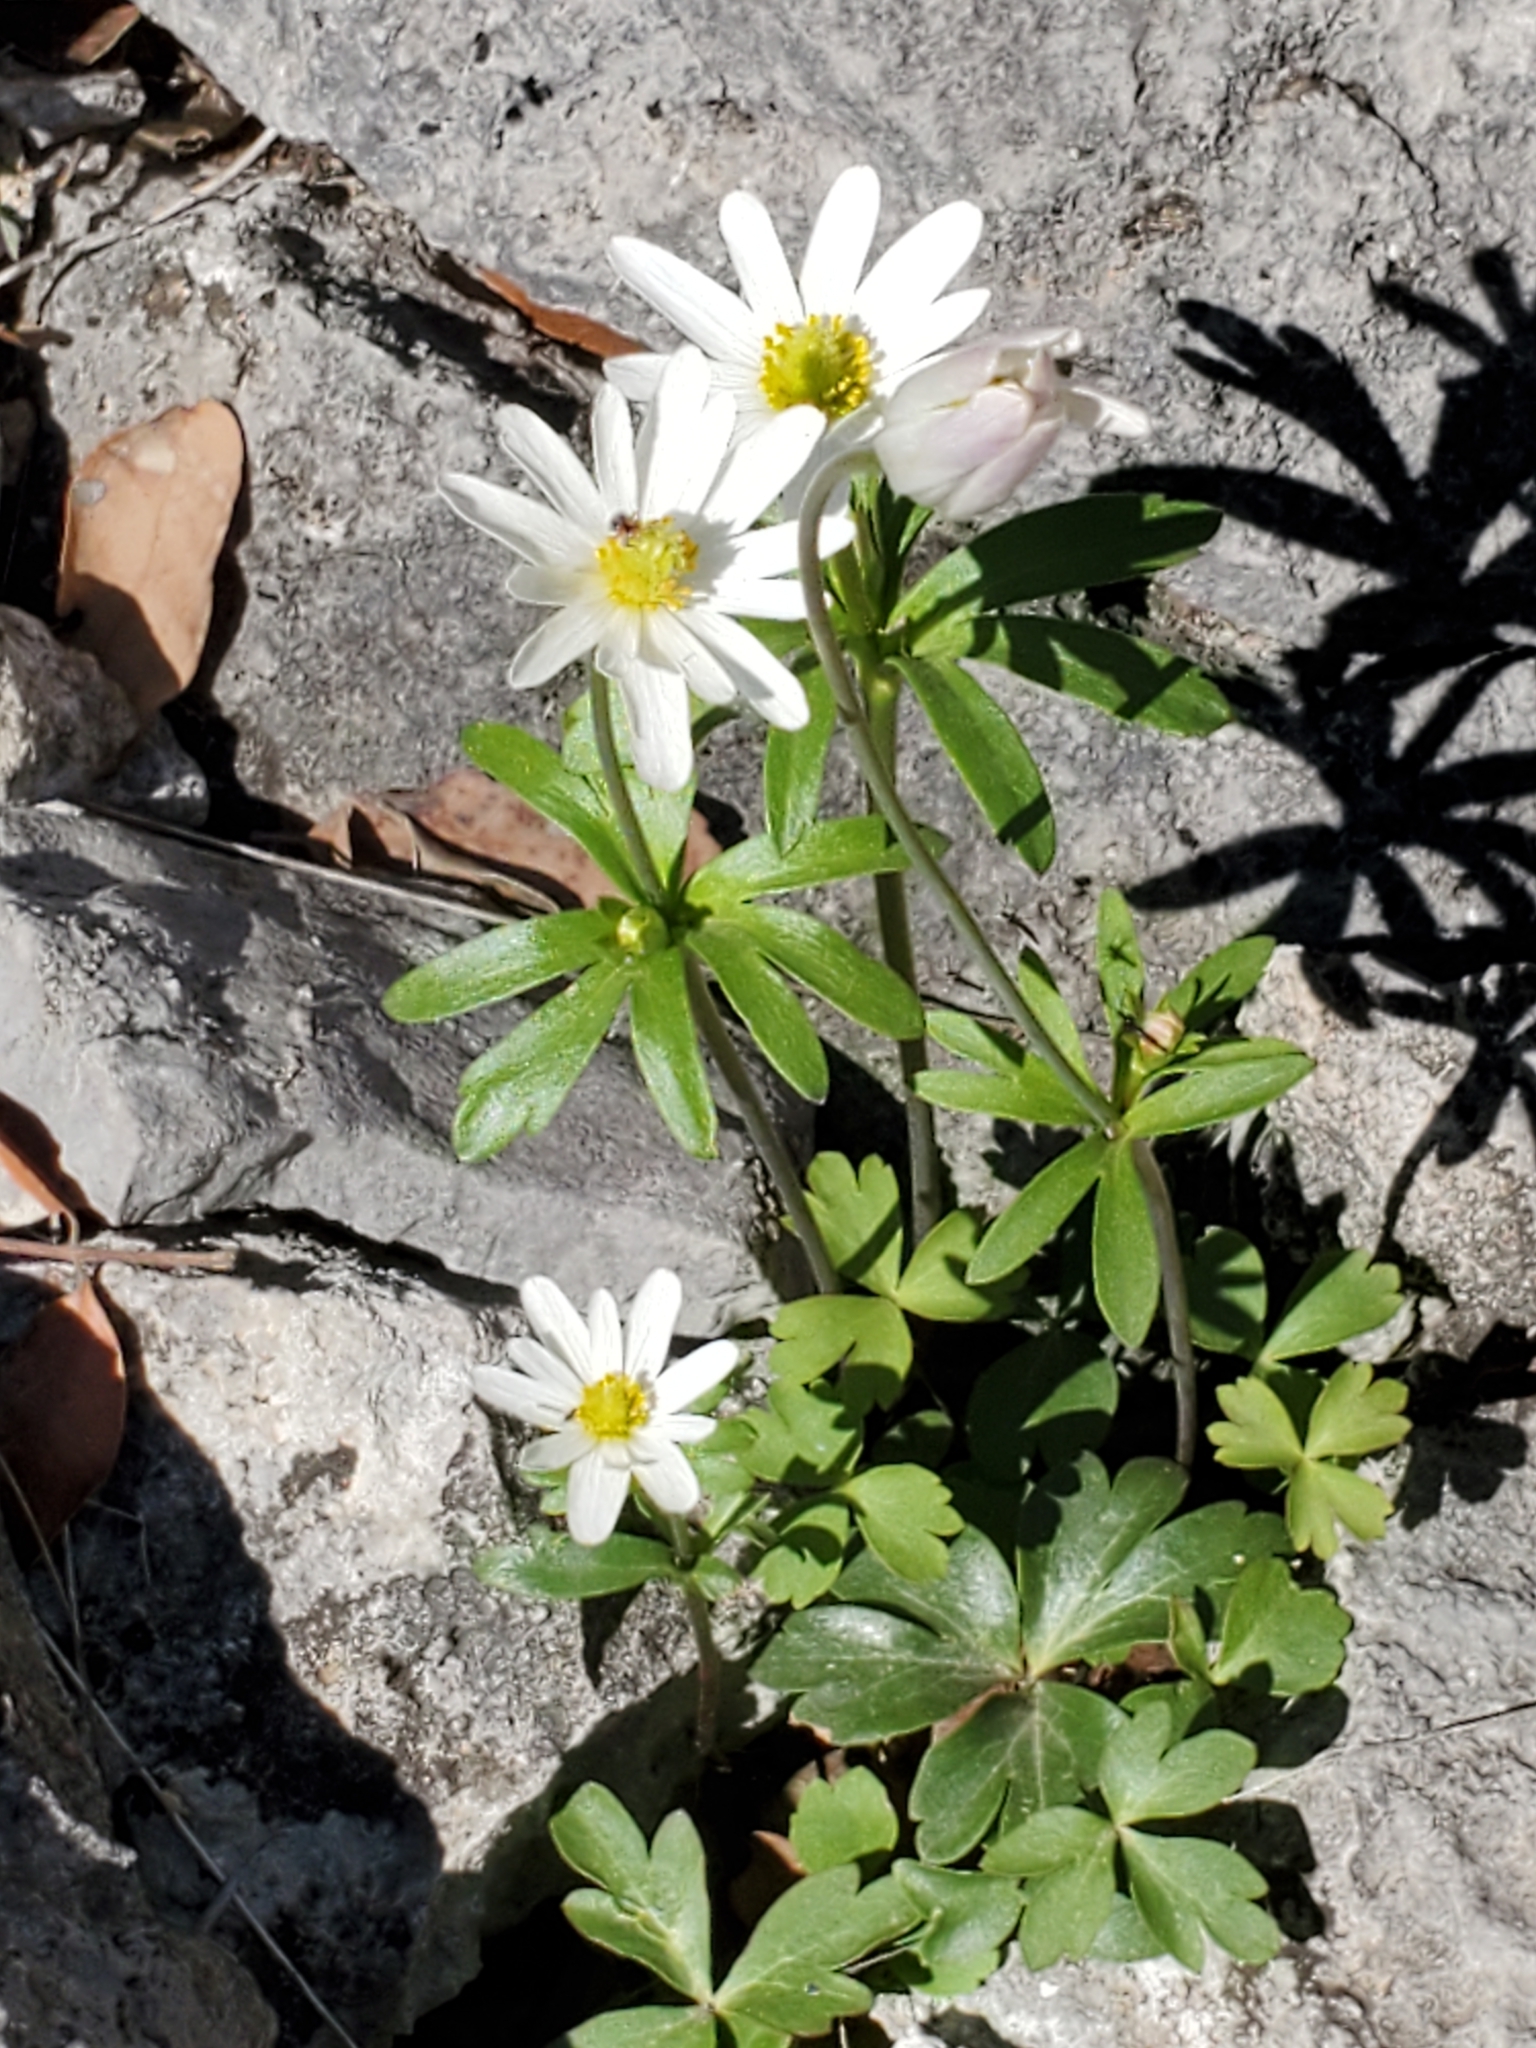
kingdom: Plantae
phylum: Tracheophyta
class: Magnoliopsida
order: Ranunculales
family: Ranunculaceae
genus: Anemone
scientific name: Anemone edwardsiana
